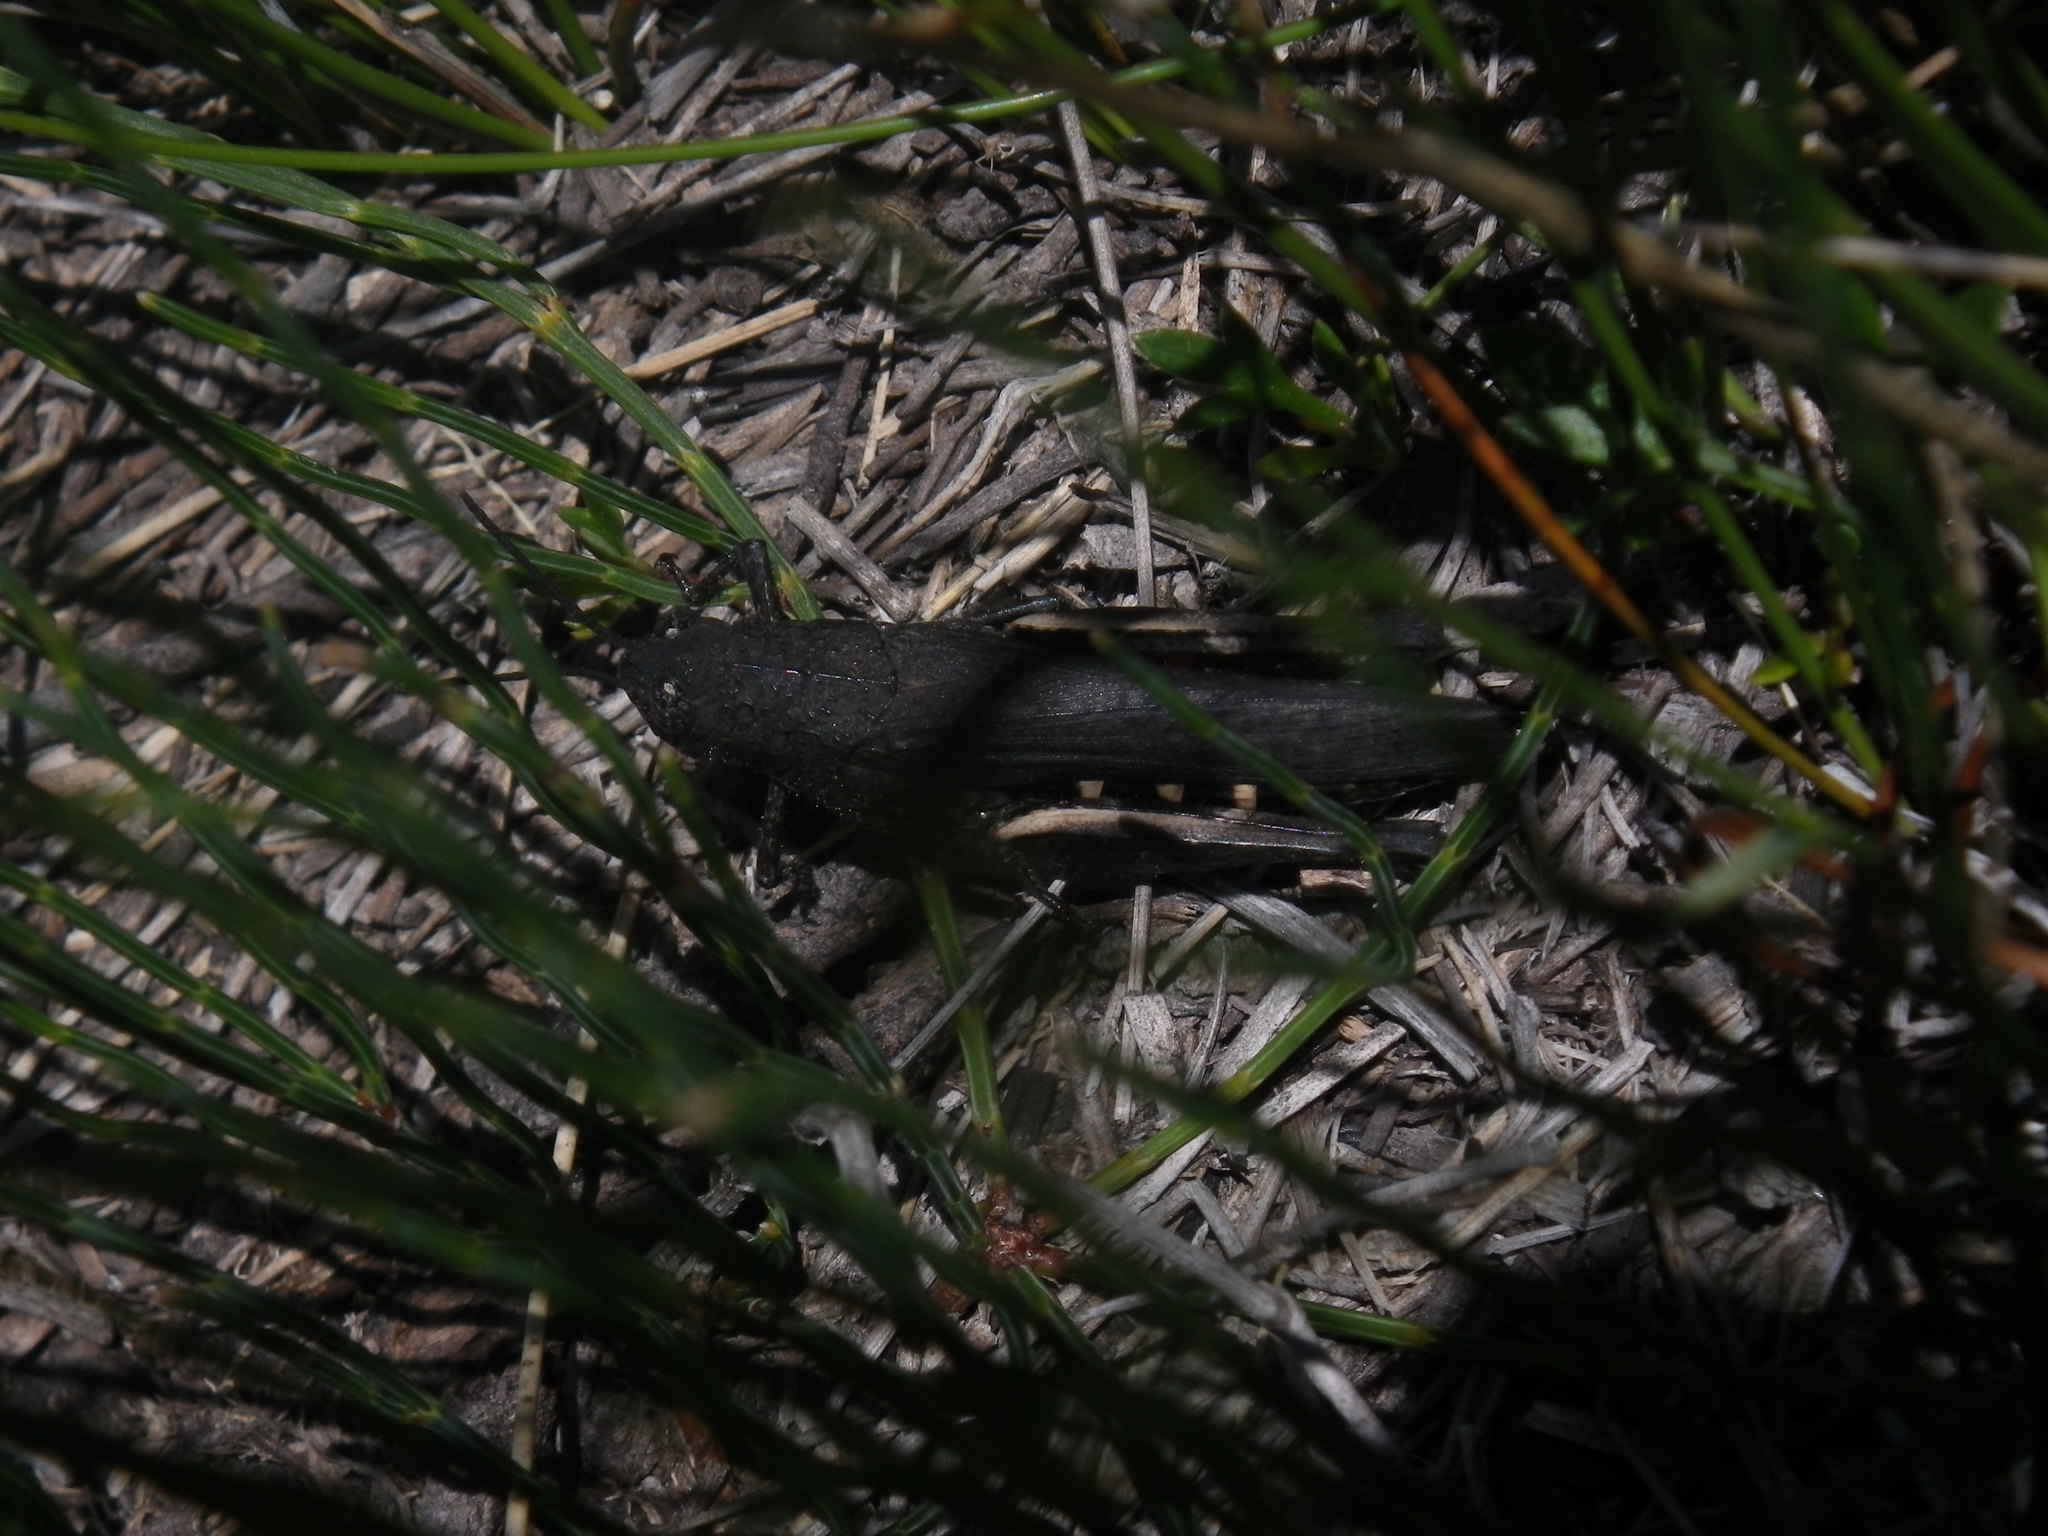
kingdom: Animalia
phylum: Arthropoda
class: Insecta
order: Orthoptera
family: Acrididae
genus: Cirphula
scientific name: Cirphula pyrrhocnemis
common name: Variable cirphula
